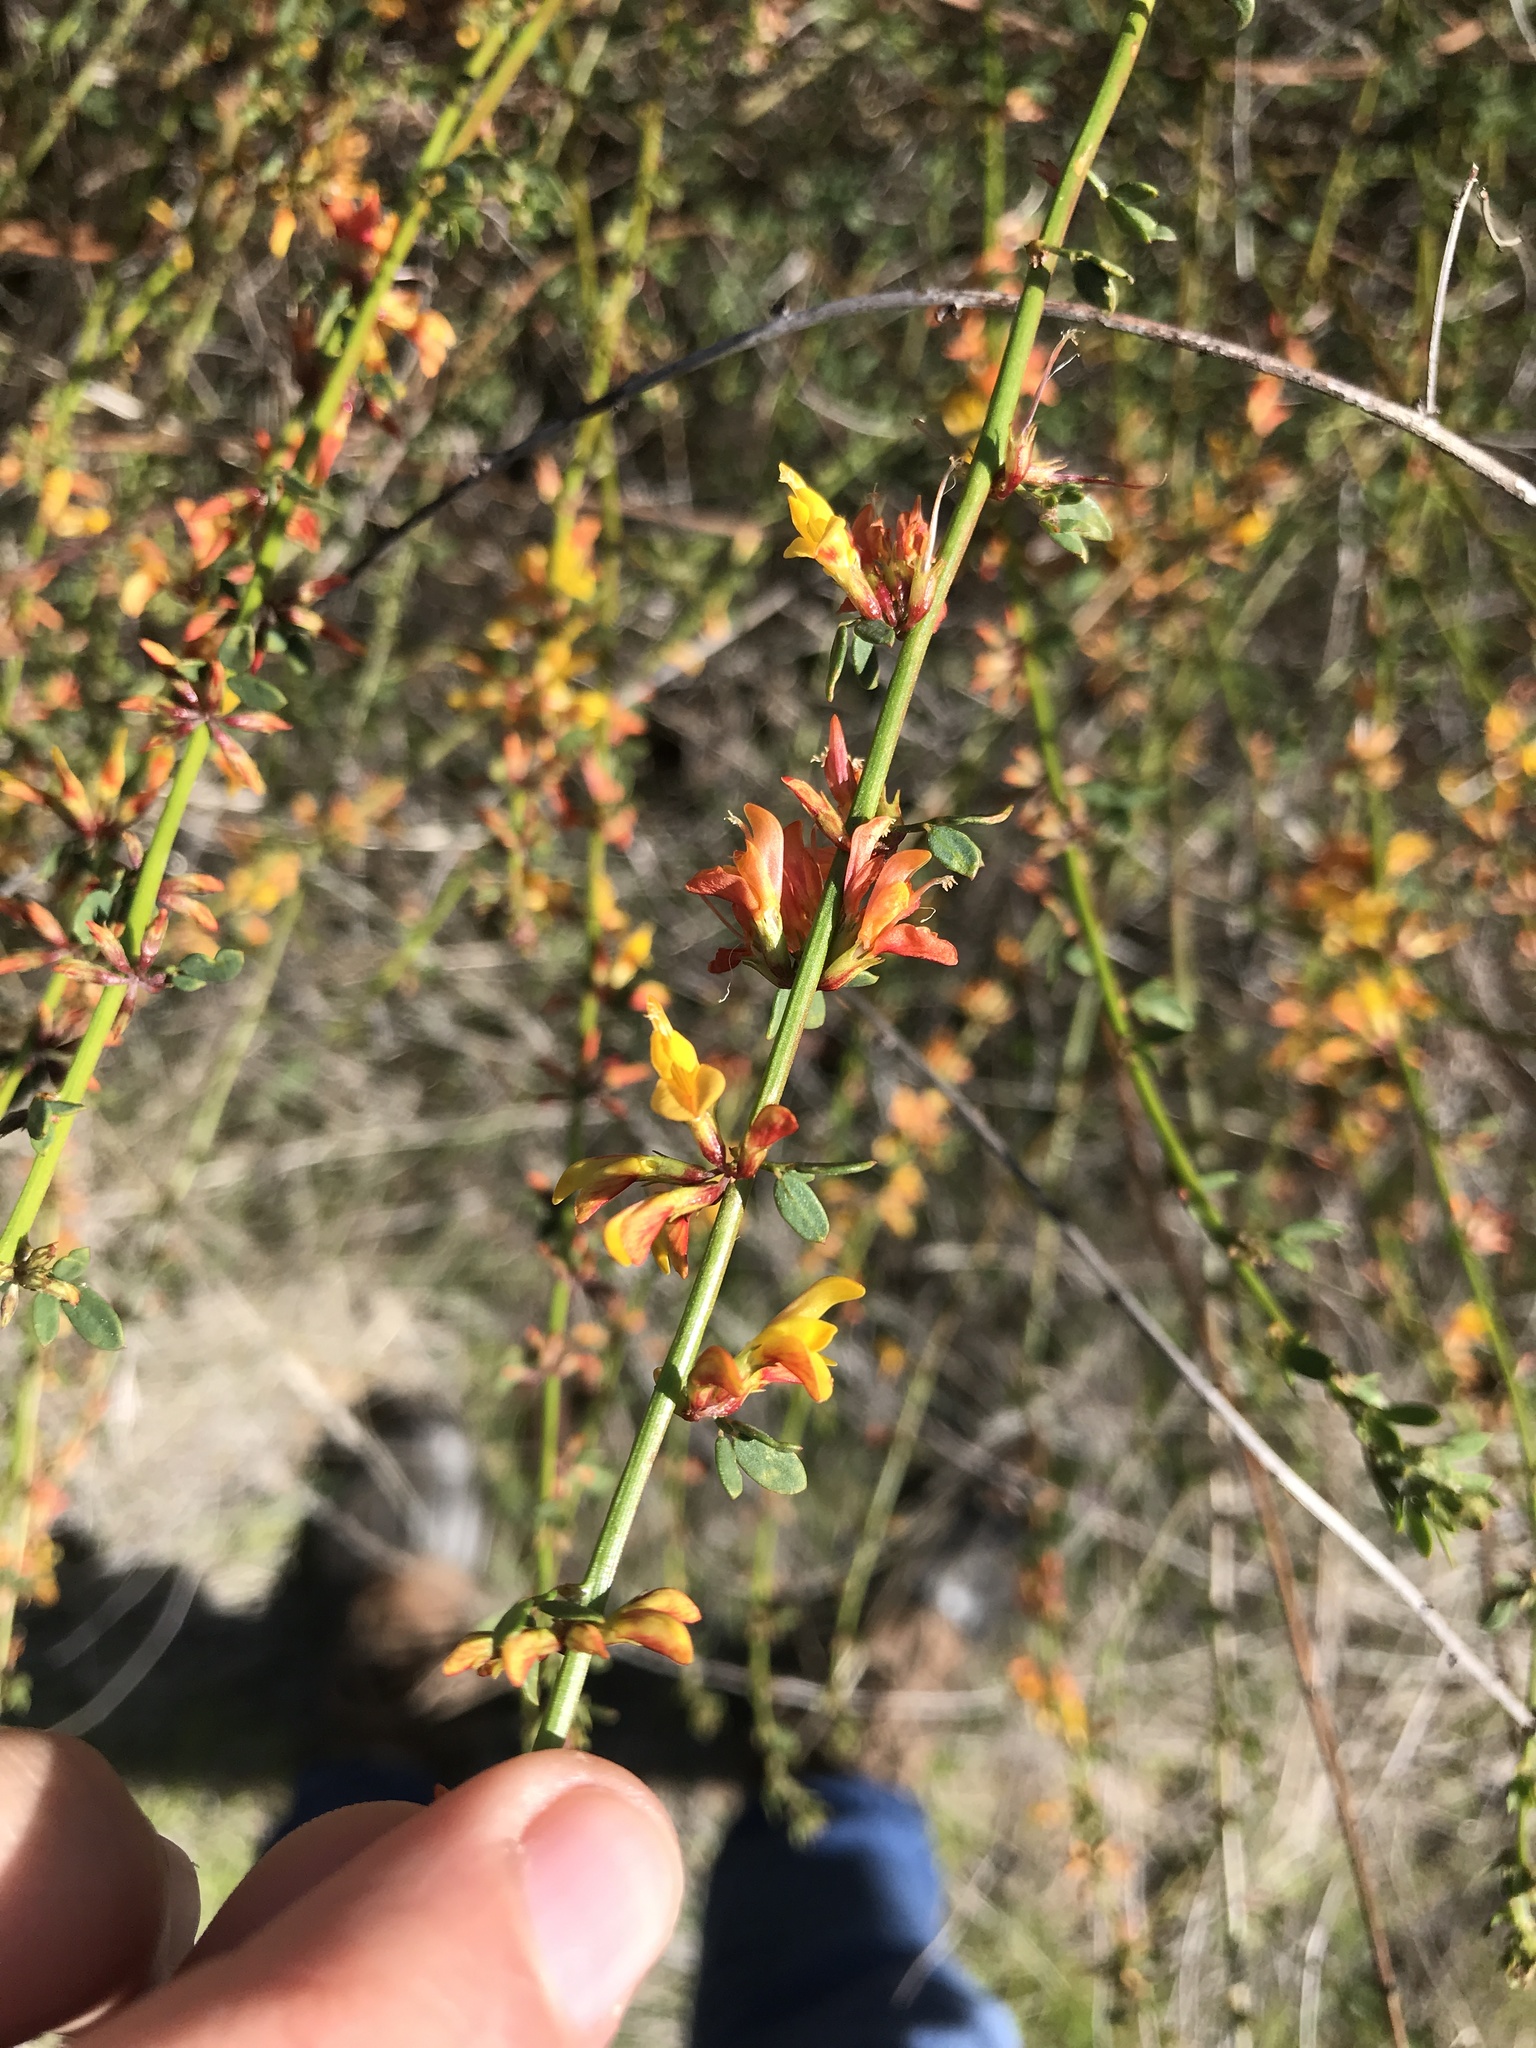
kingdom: Plantae
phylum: Tracheophyta
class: Magnoliopsida
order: Fabales
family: Fabaceae
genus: Acmispon
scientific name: Acmispon glaber
